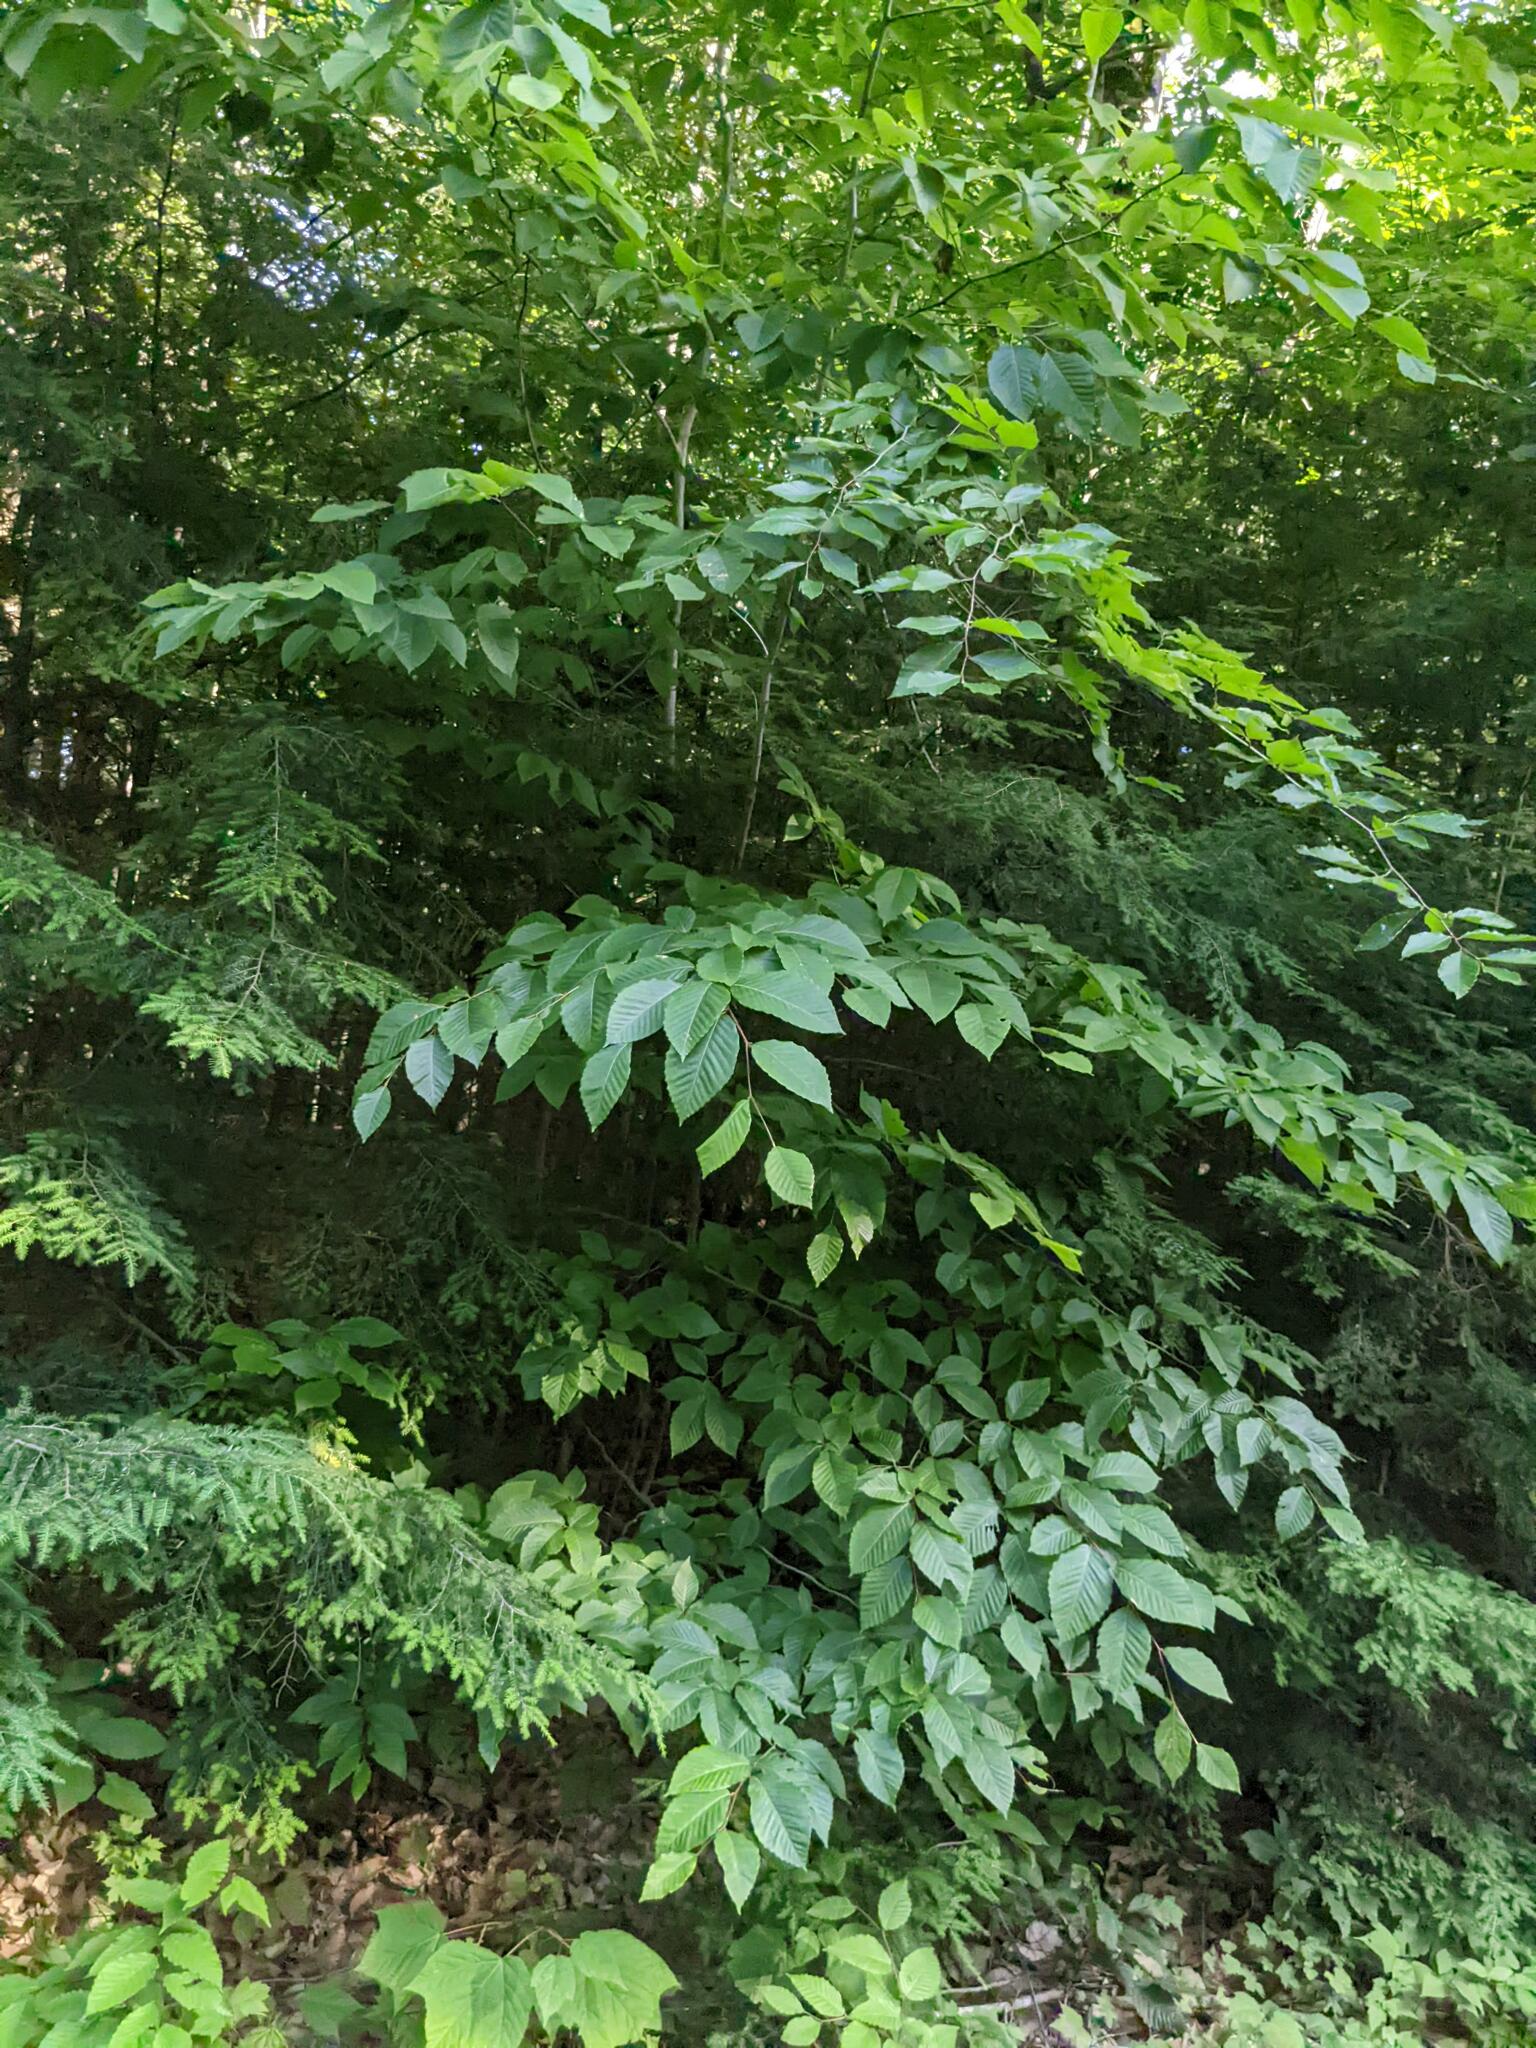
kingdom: Plantae
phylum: Tracheophyta
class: Magnoliopsida
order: Fagales
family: Fagaceae
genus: Fagus
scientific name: Fagus grandifolia
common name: American beech
